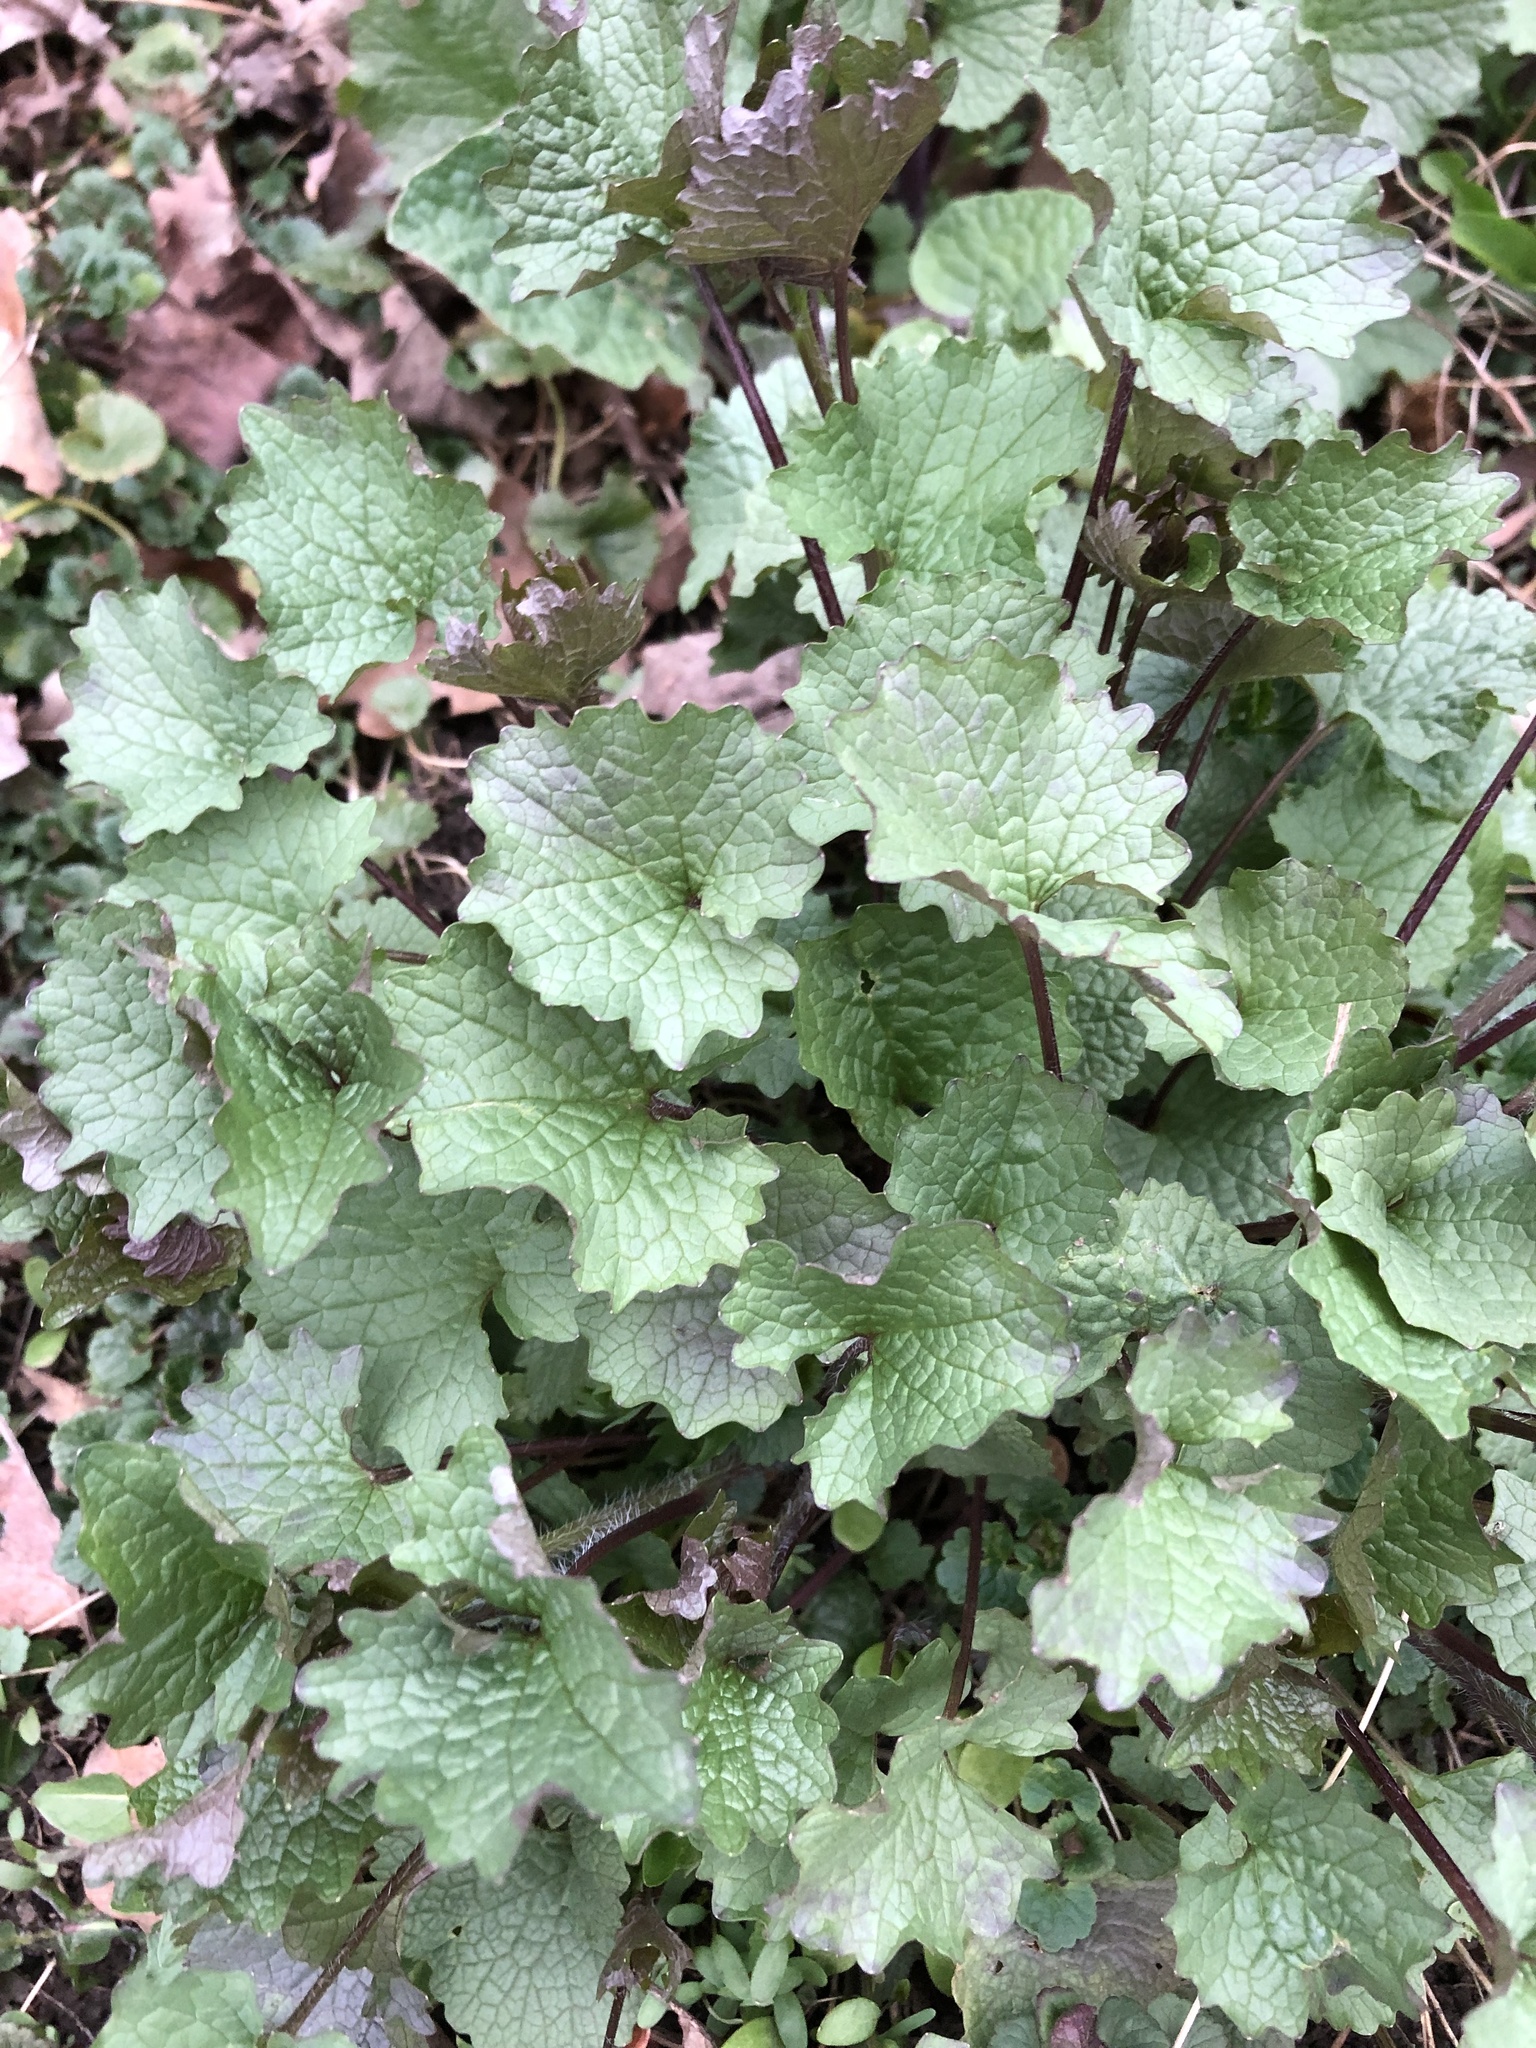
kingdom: Plantae
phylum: Tracheophyta
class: Magnoliopsida
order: Brassicales
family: Brassicaceae
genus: Alliaria
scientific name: Alliaria petiolata
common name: Garlic mustard
